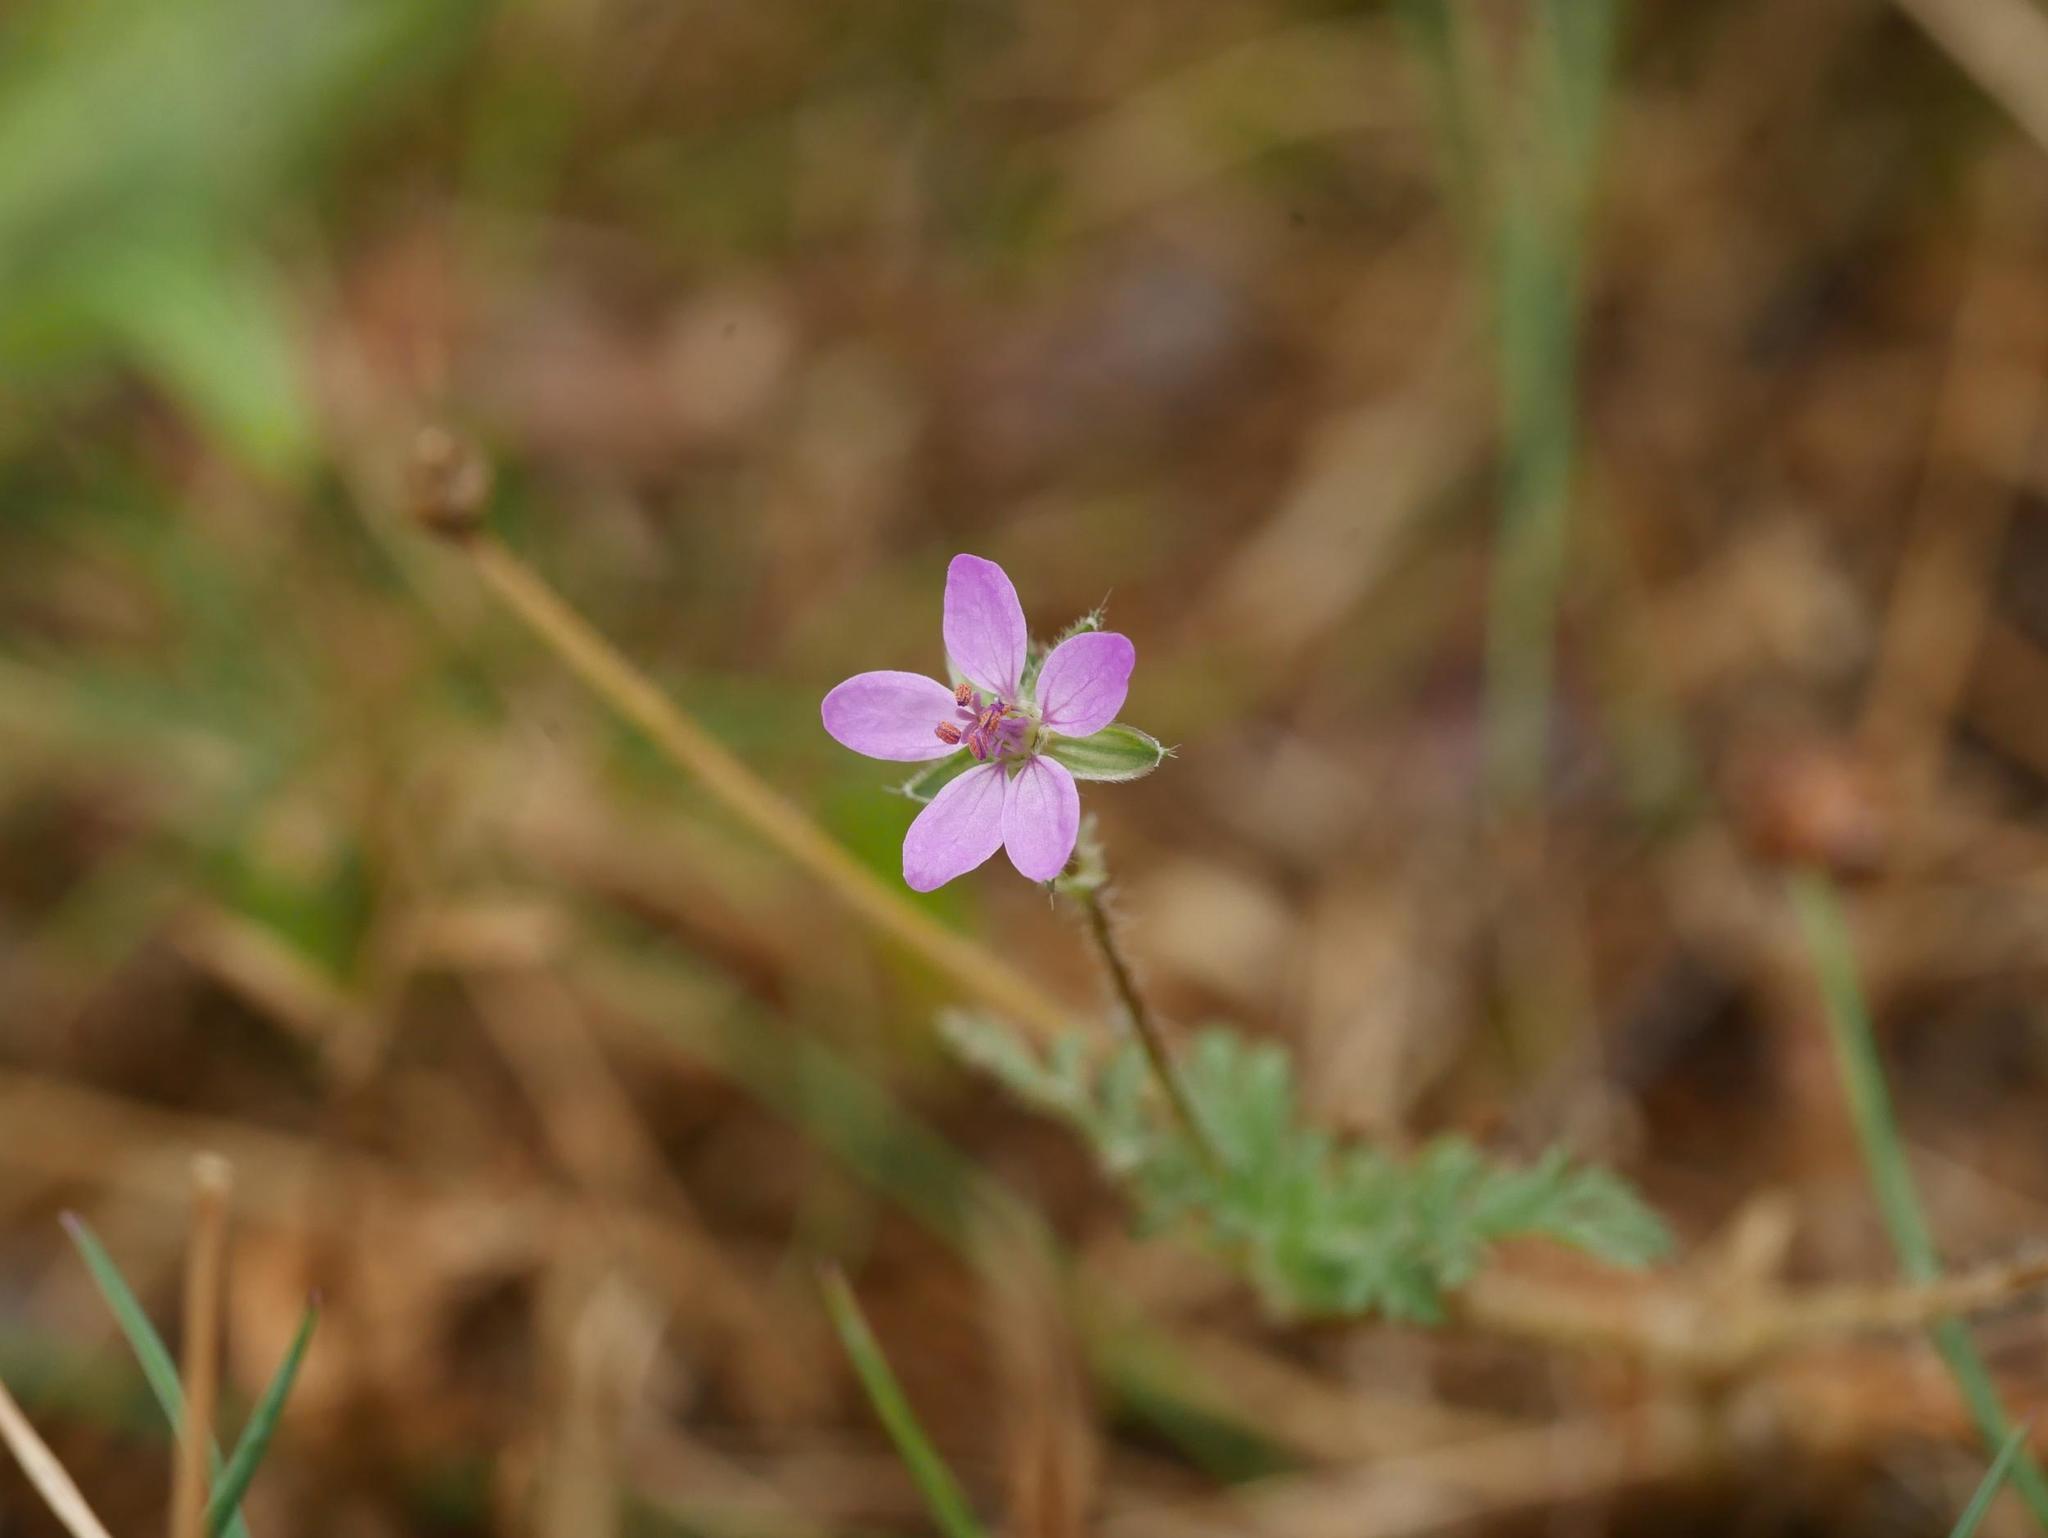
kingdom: Plantae
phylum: Tracheophyta
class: Magnoliopsida
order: Geraniales
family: Geraniaceae
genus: Erodium
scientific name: Erodium cicutarium
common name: Common stork's-bill
